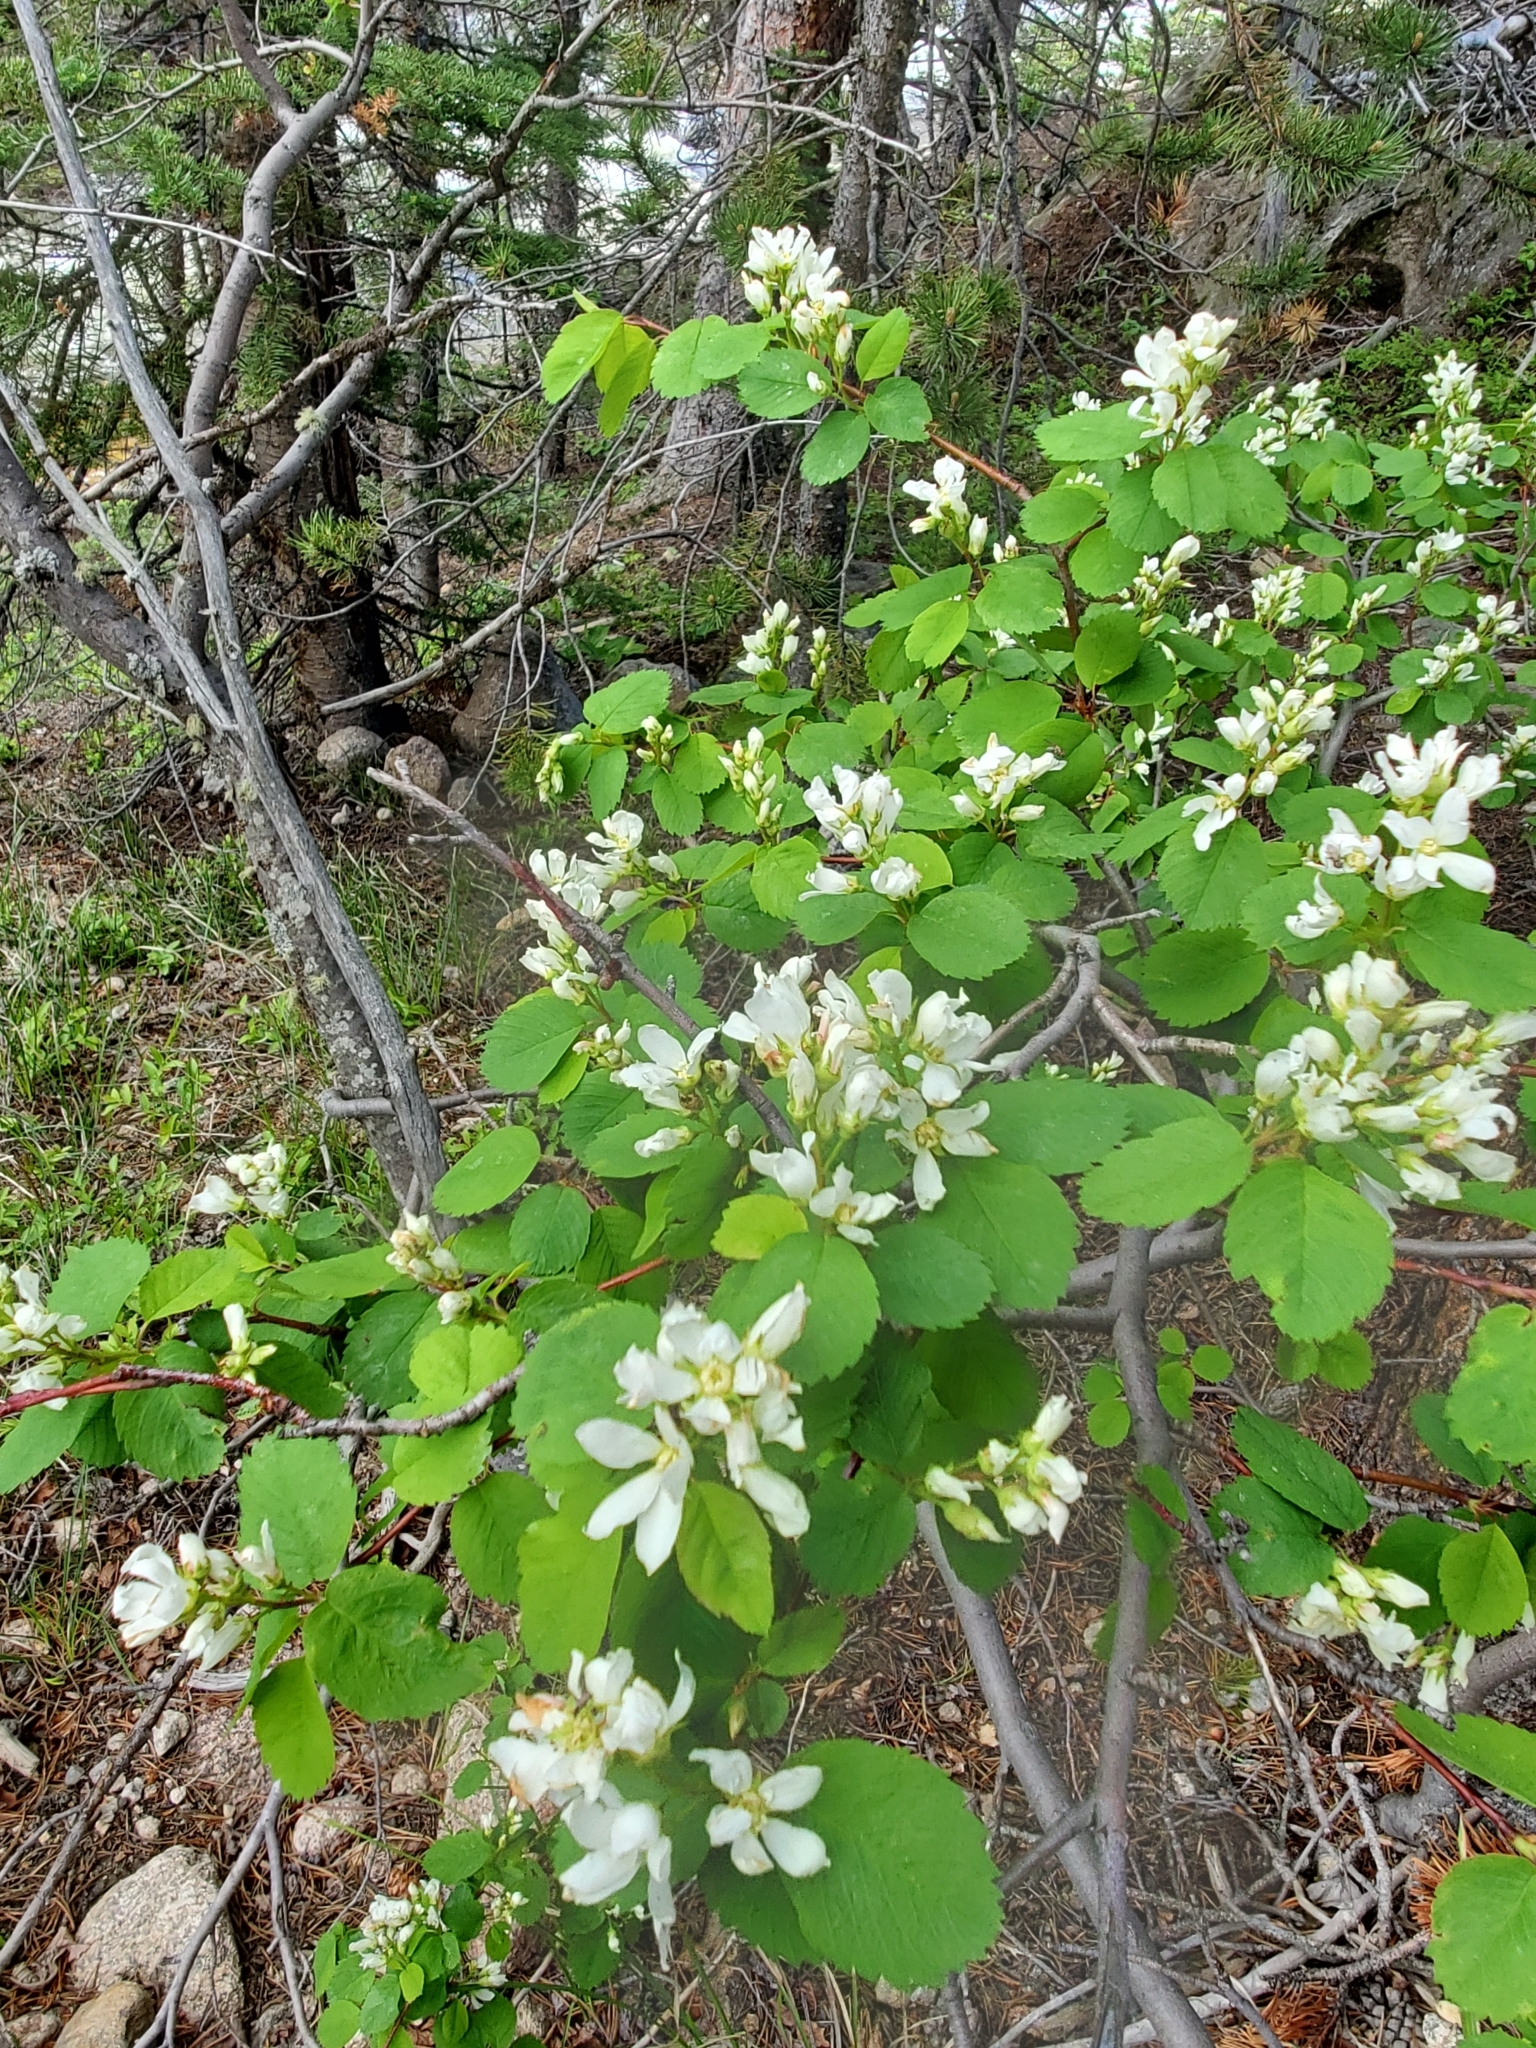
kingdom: Plantae
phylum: Tracheophyta
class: Magnoliopsida
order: Rosales
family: Rosaceae
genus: Amelanchier
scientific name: Amelanchier alnifolia
